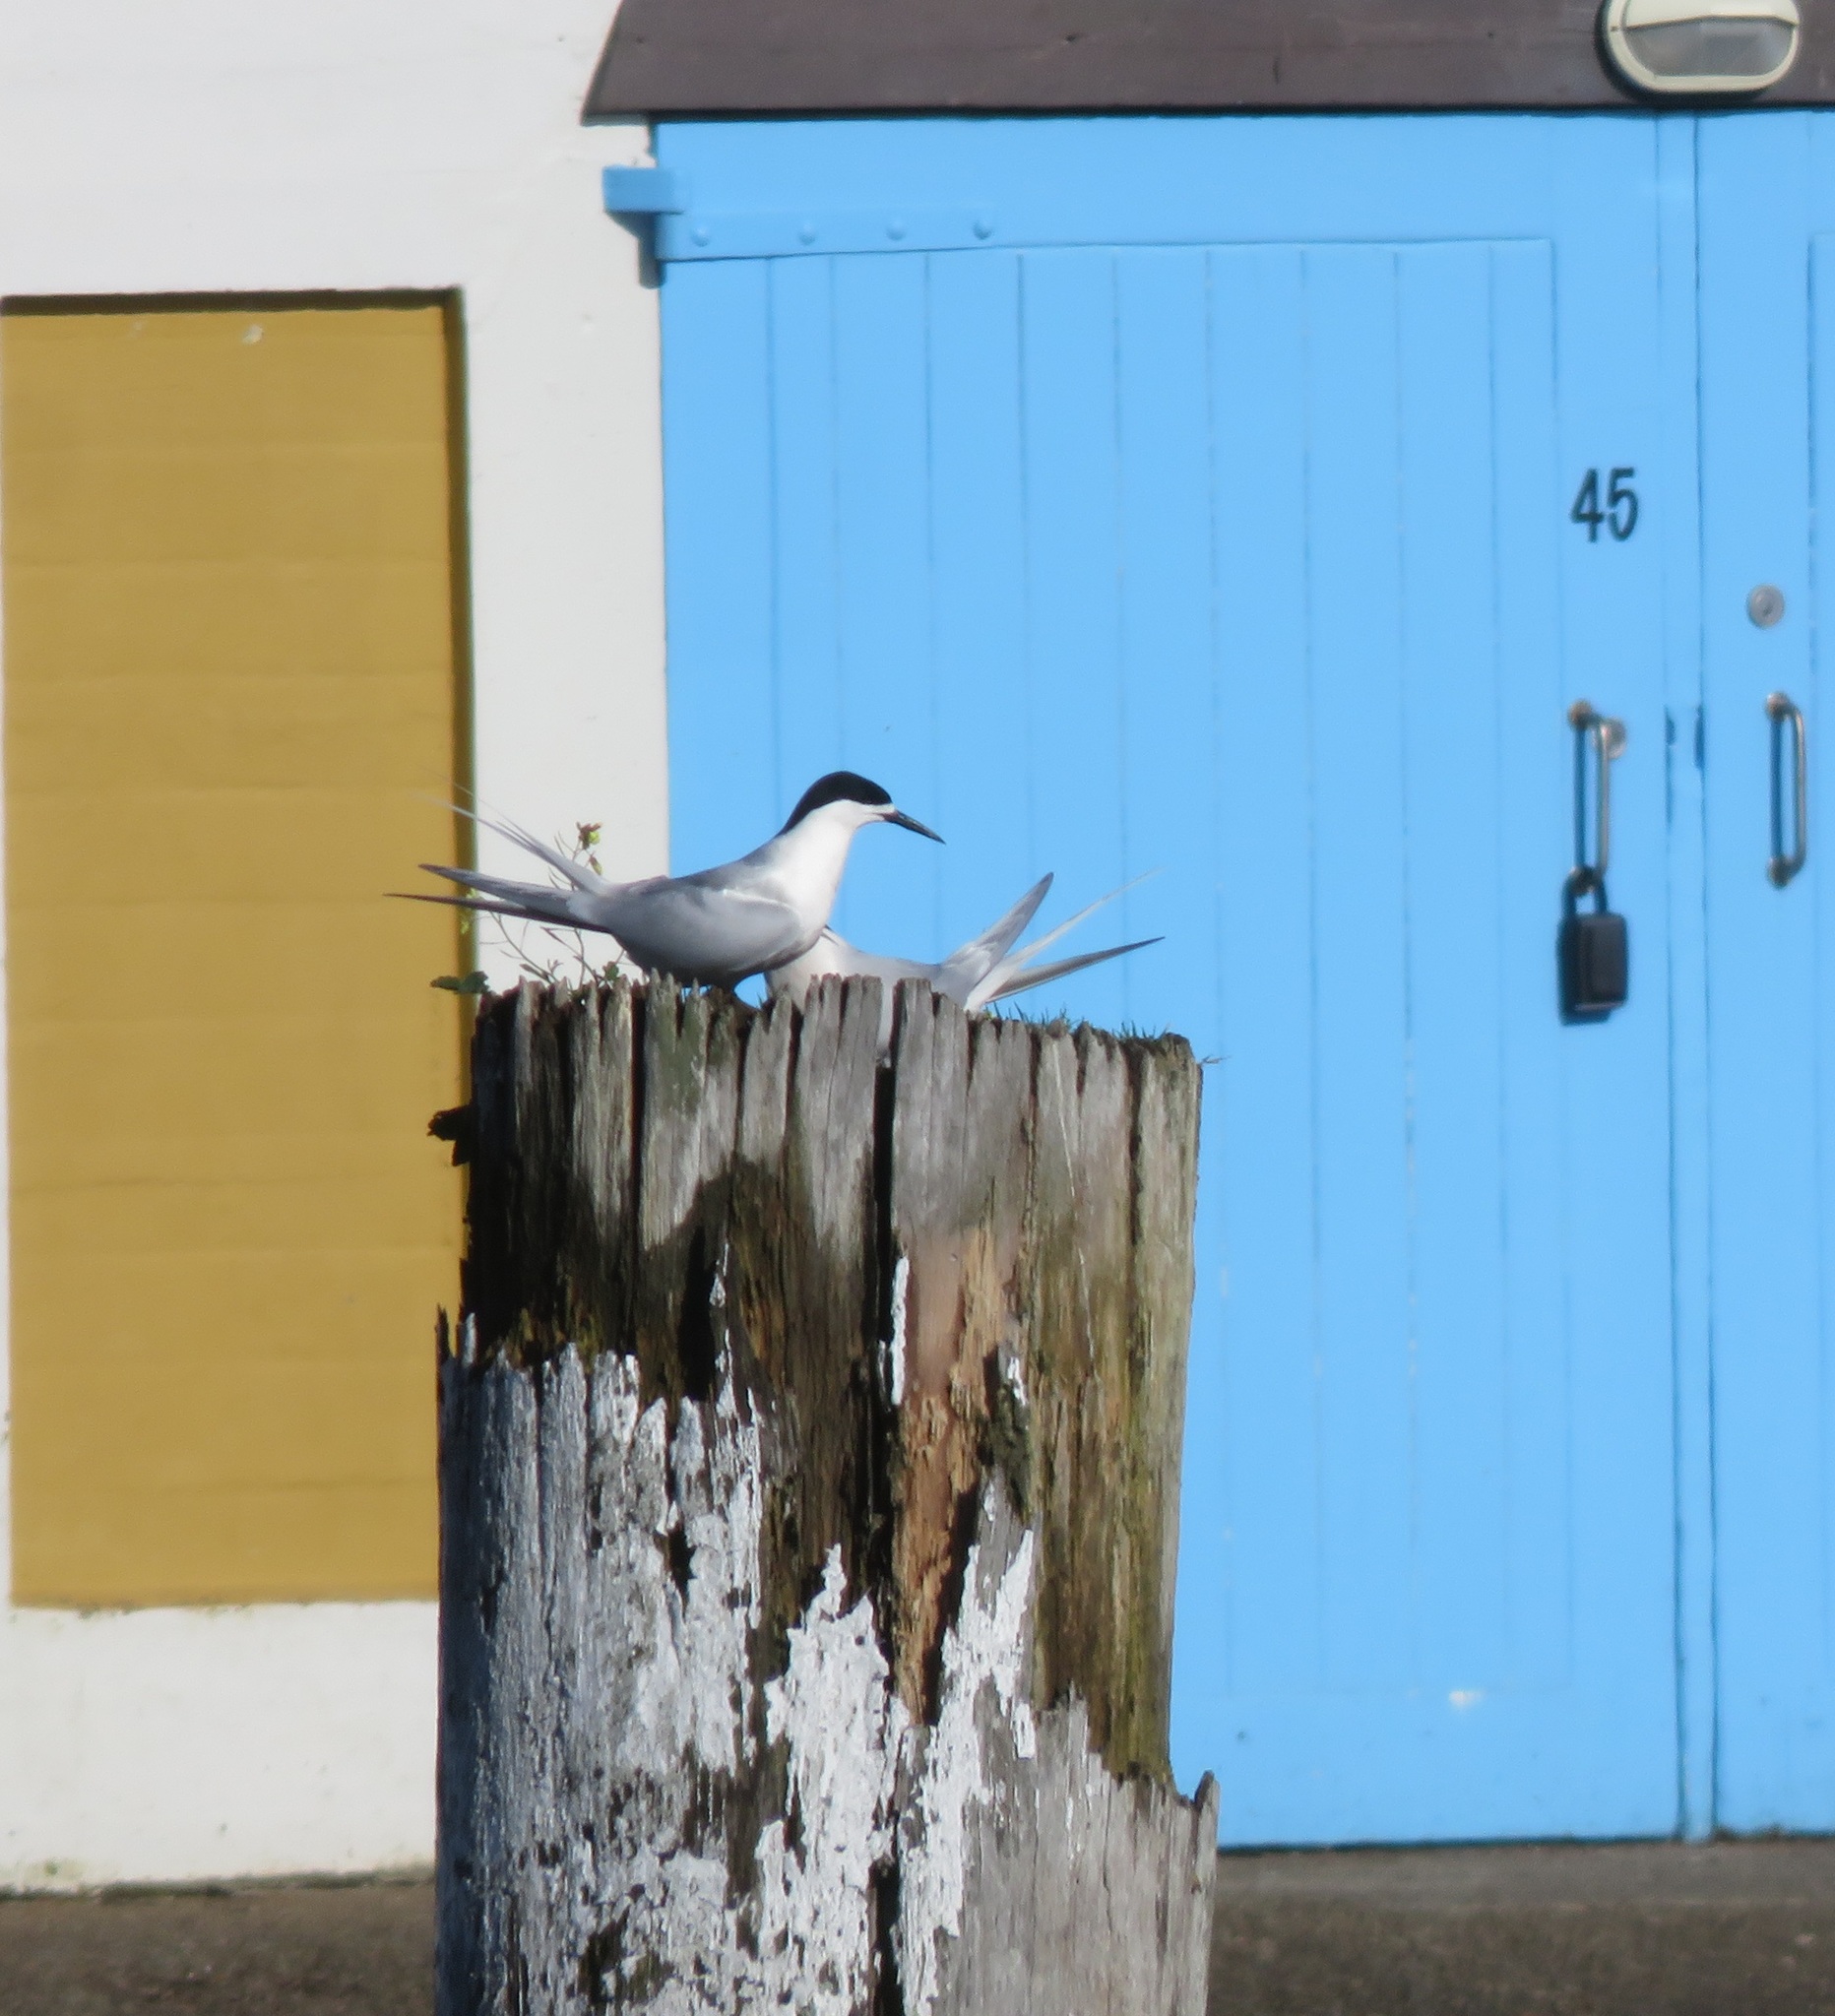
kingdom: Animalia
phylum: Chordata
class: Aves
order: Charadriiformes
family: Laridae
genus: Sterna
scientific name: Sterna striata
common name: White-fronted tern
